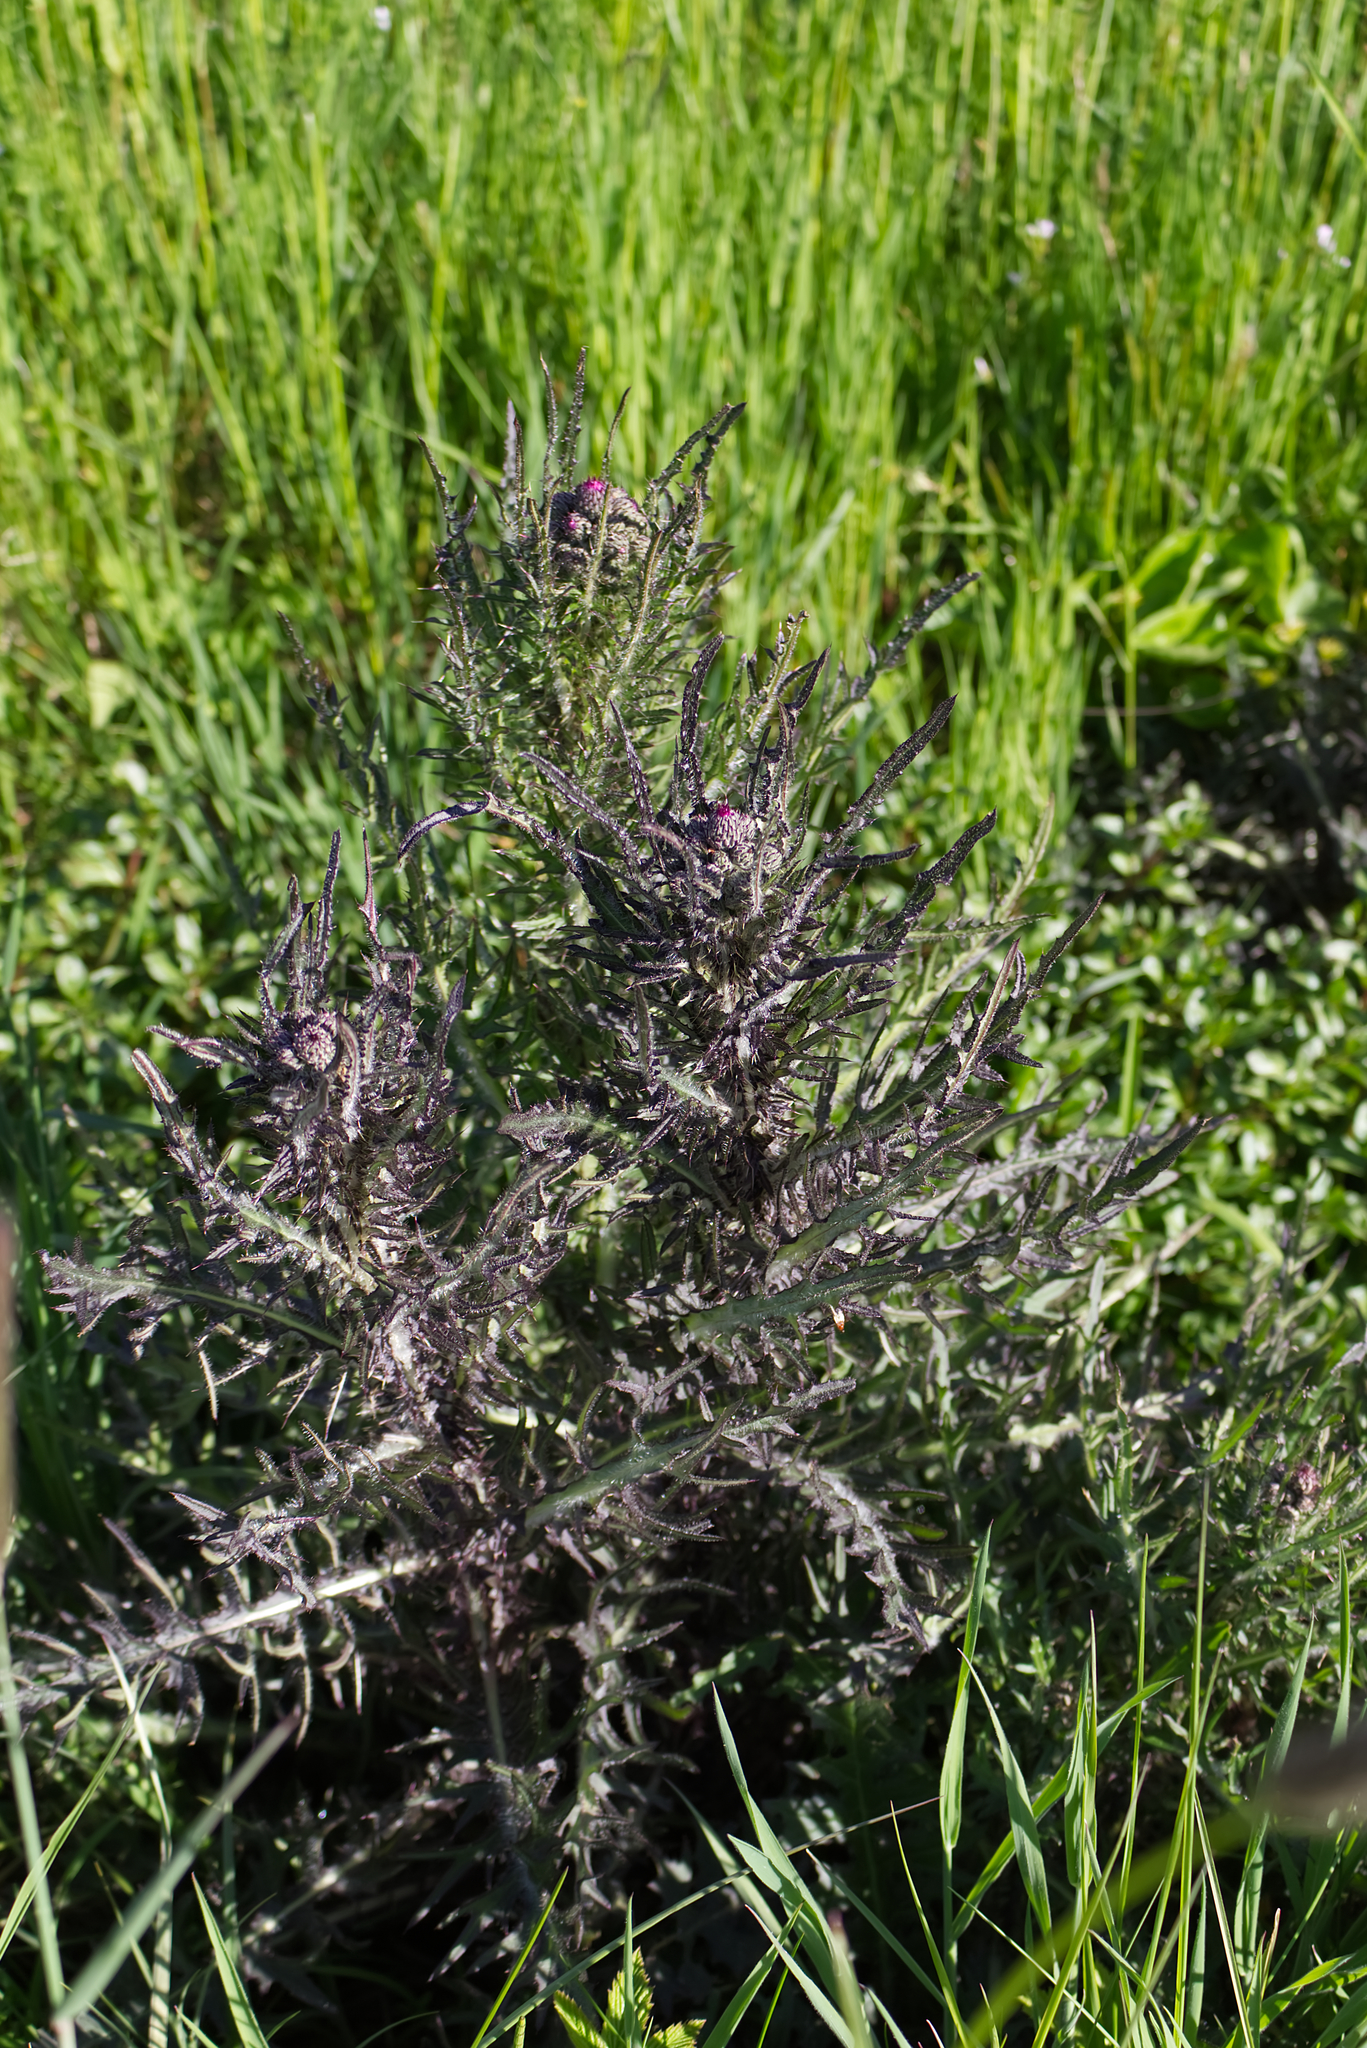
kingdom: Plantae
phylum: Tracheophyta
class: Magnoliopsida
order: Asterales
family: Asteraceae
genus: Cirsium
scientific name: Cirsium palustre
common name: Marsh thistle
